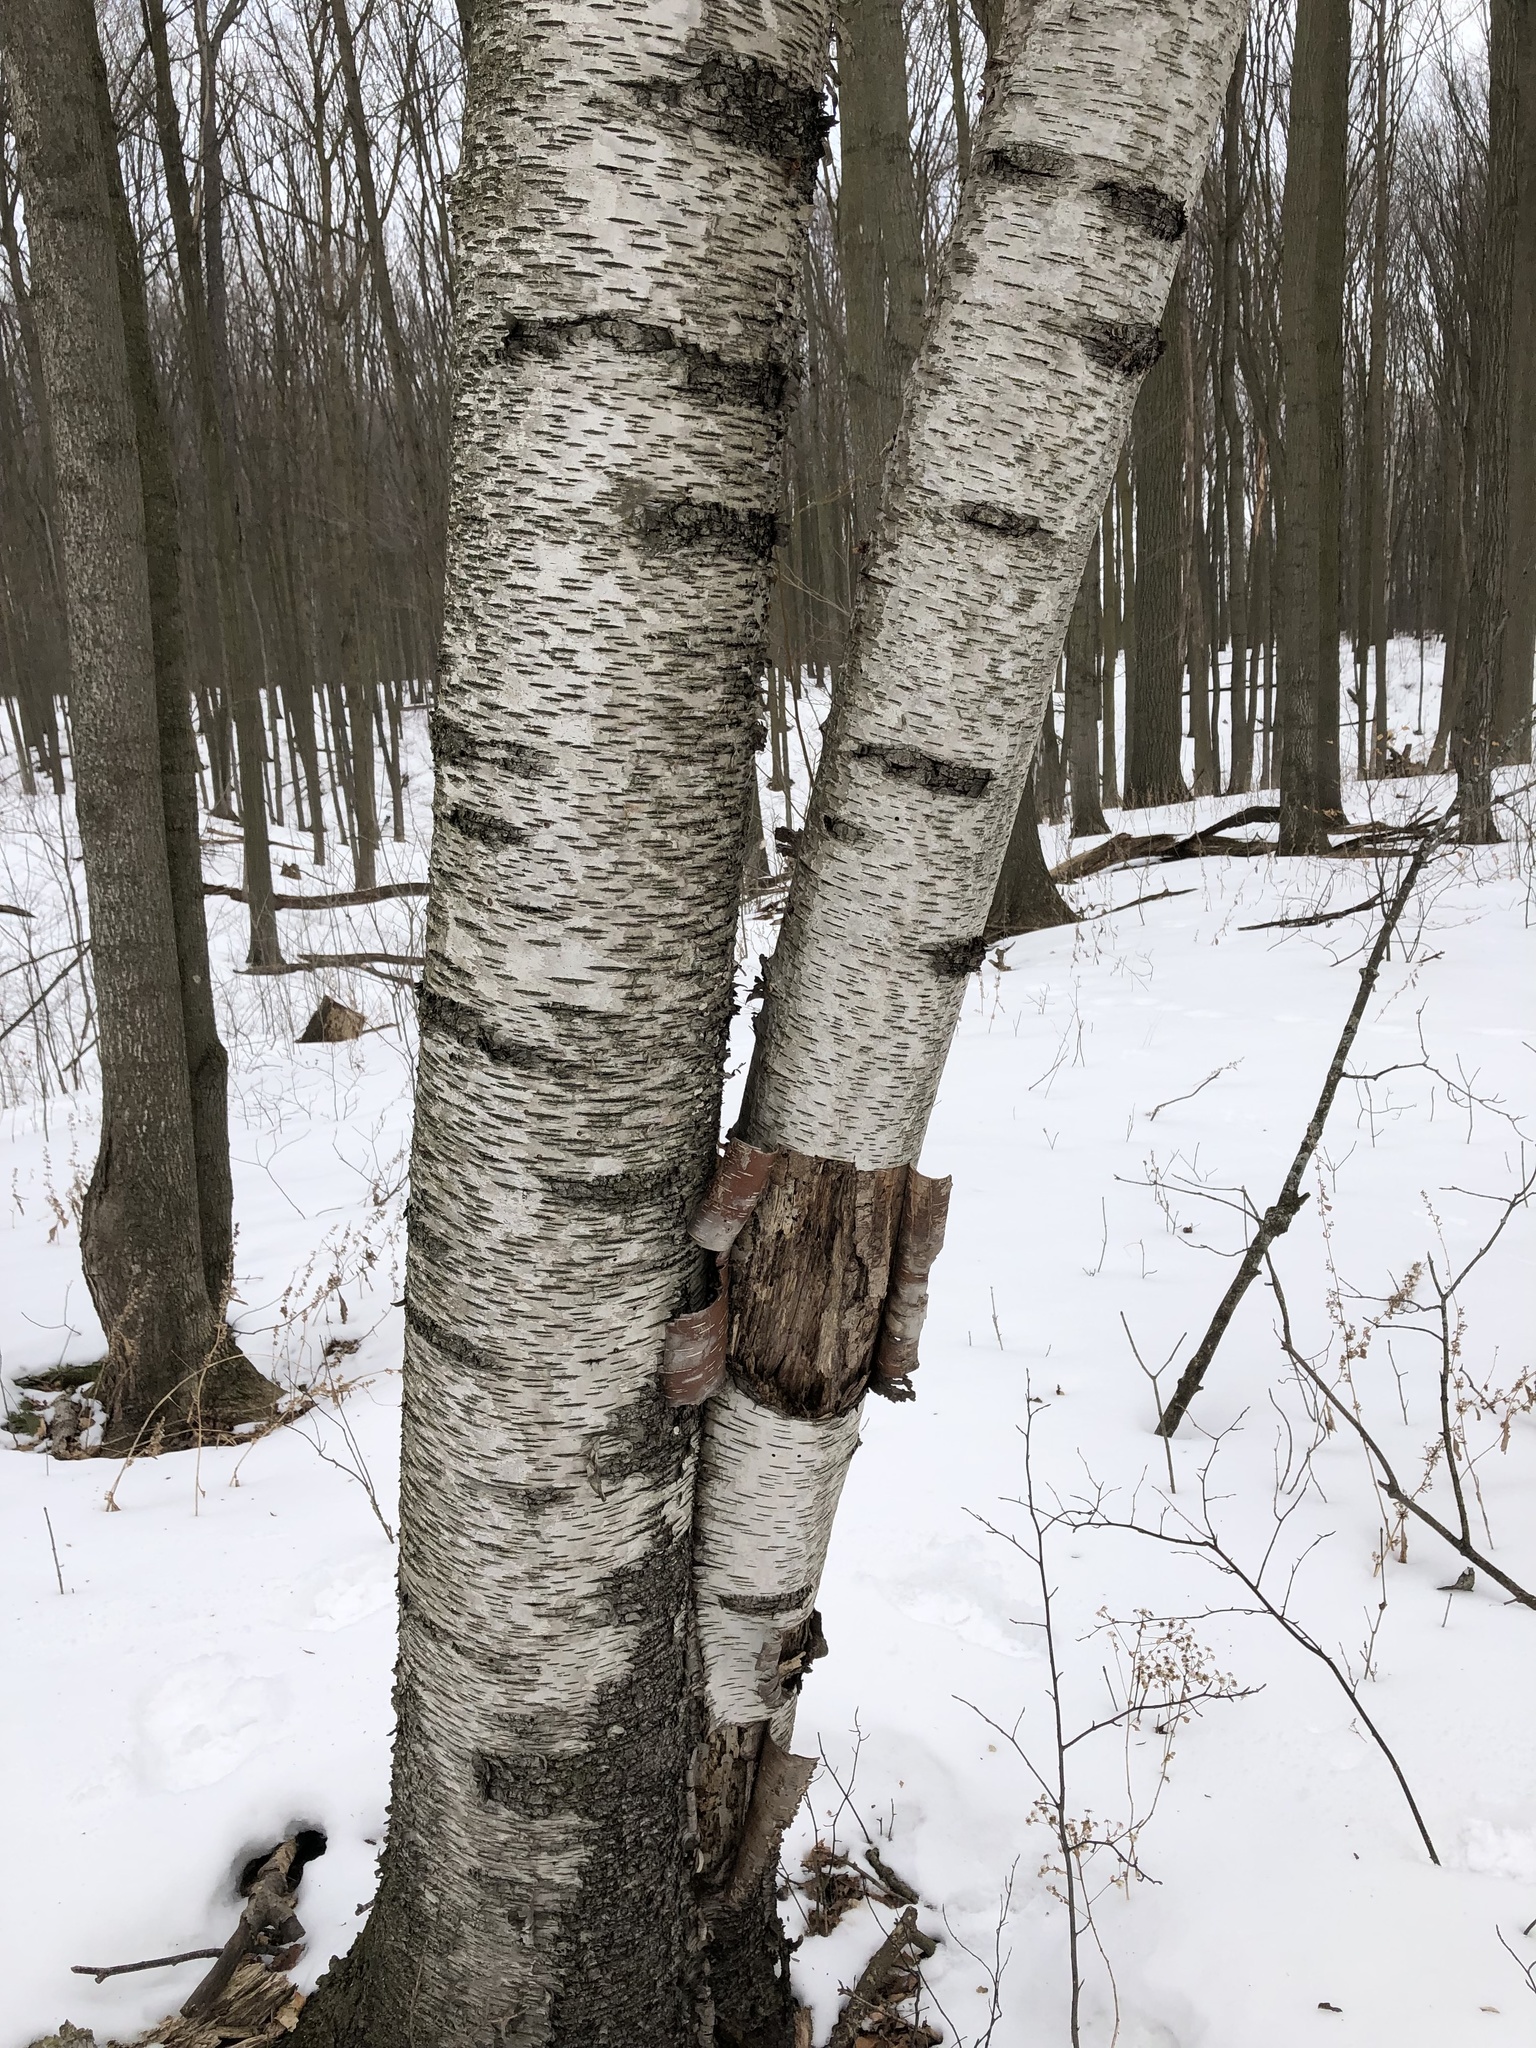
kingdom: Plantae
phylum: Tracheophyta
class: Magnoliopsida
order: Fagales
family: Betulaceae
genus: Betula
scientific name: Betula papyrifera
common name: Paper birch
